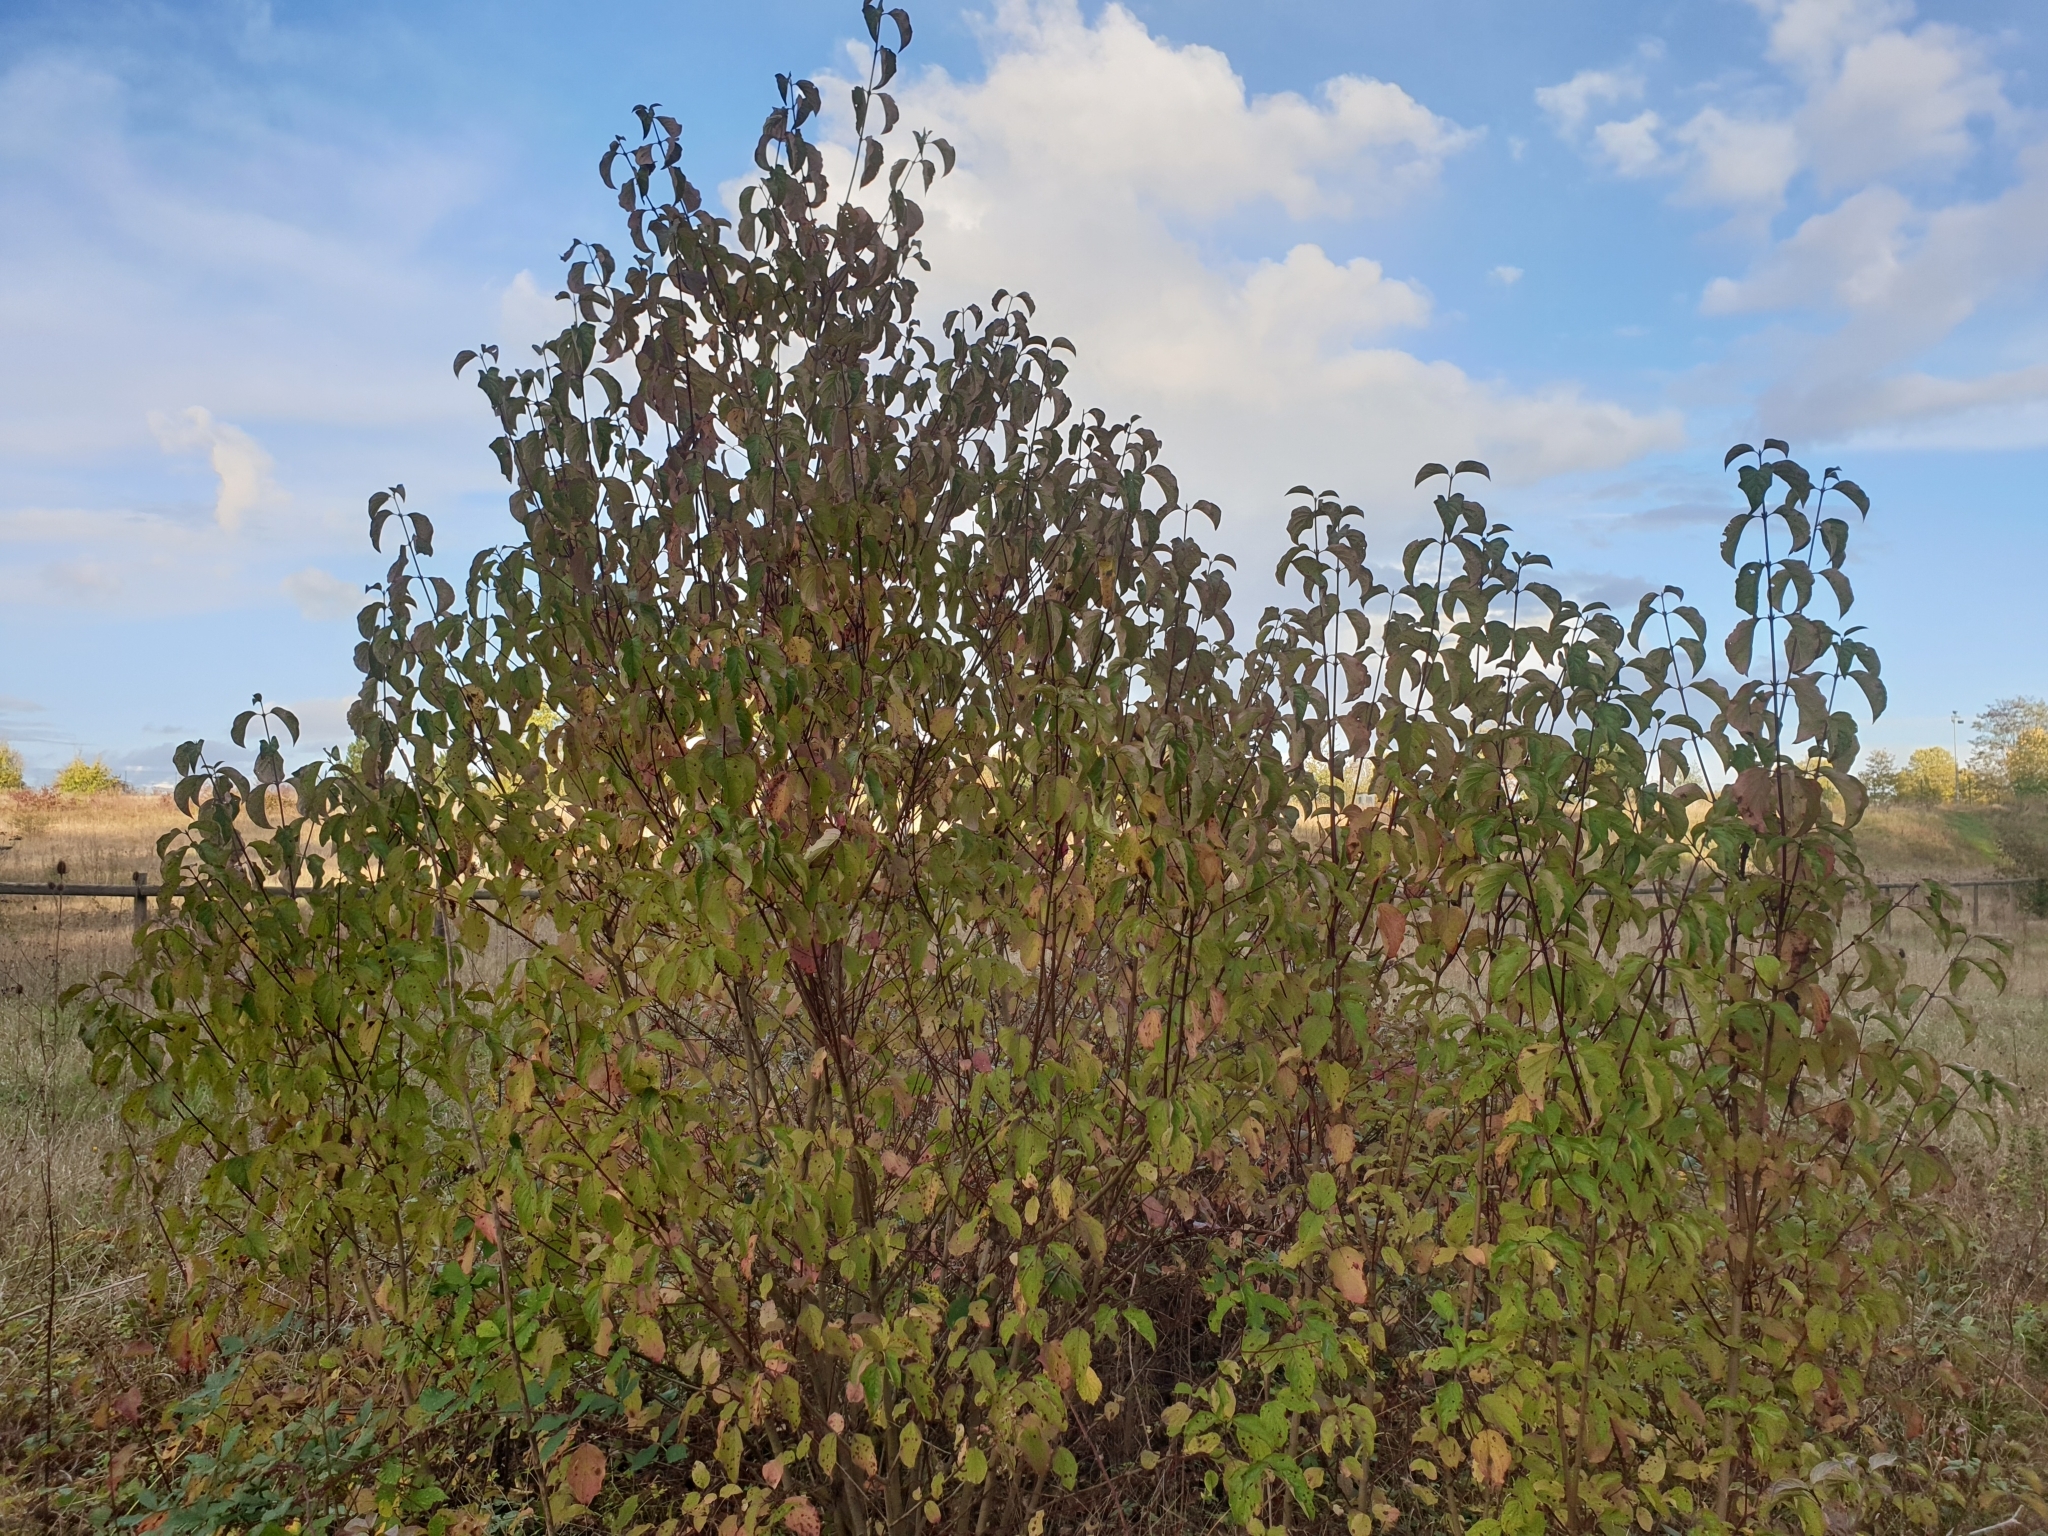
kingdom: Plantae
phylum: Tracheophyta
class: Magnoliopsida
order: Cornales
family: Cornaceae
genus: Cornus
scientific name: Cornus sanguinea
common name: Dogwood
